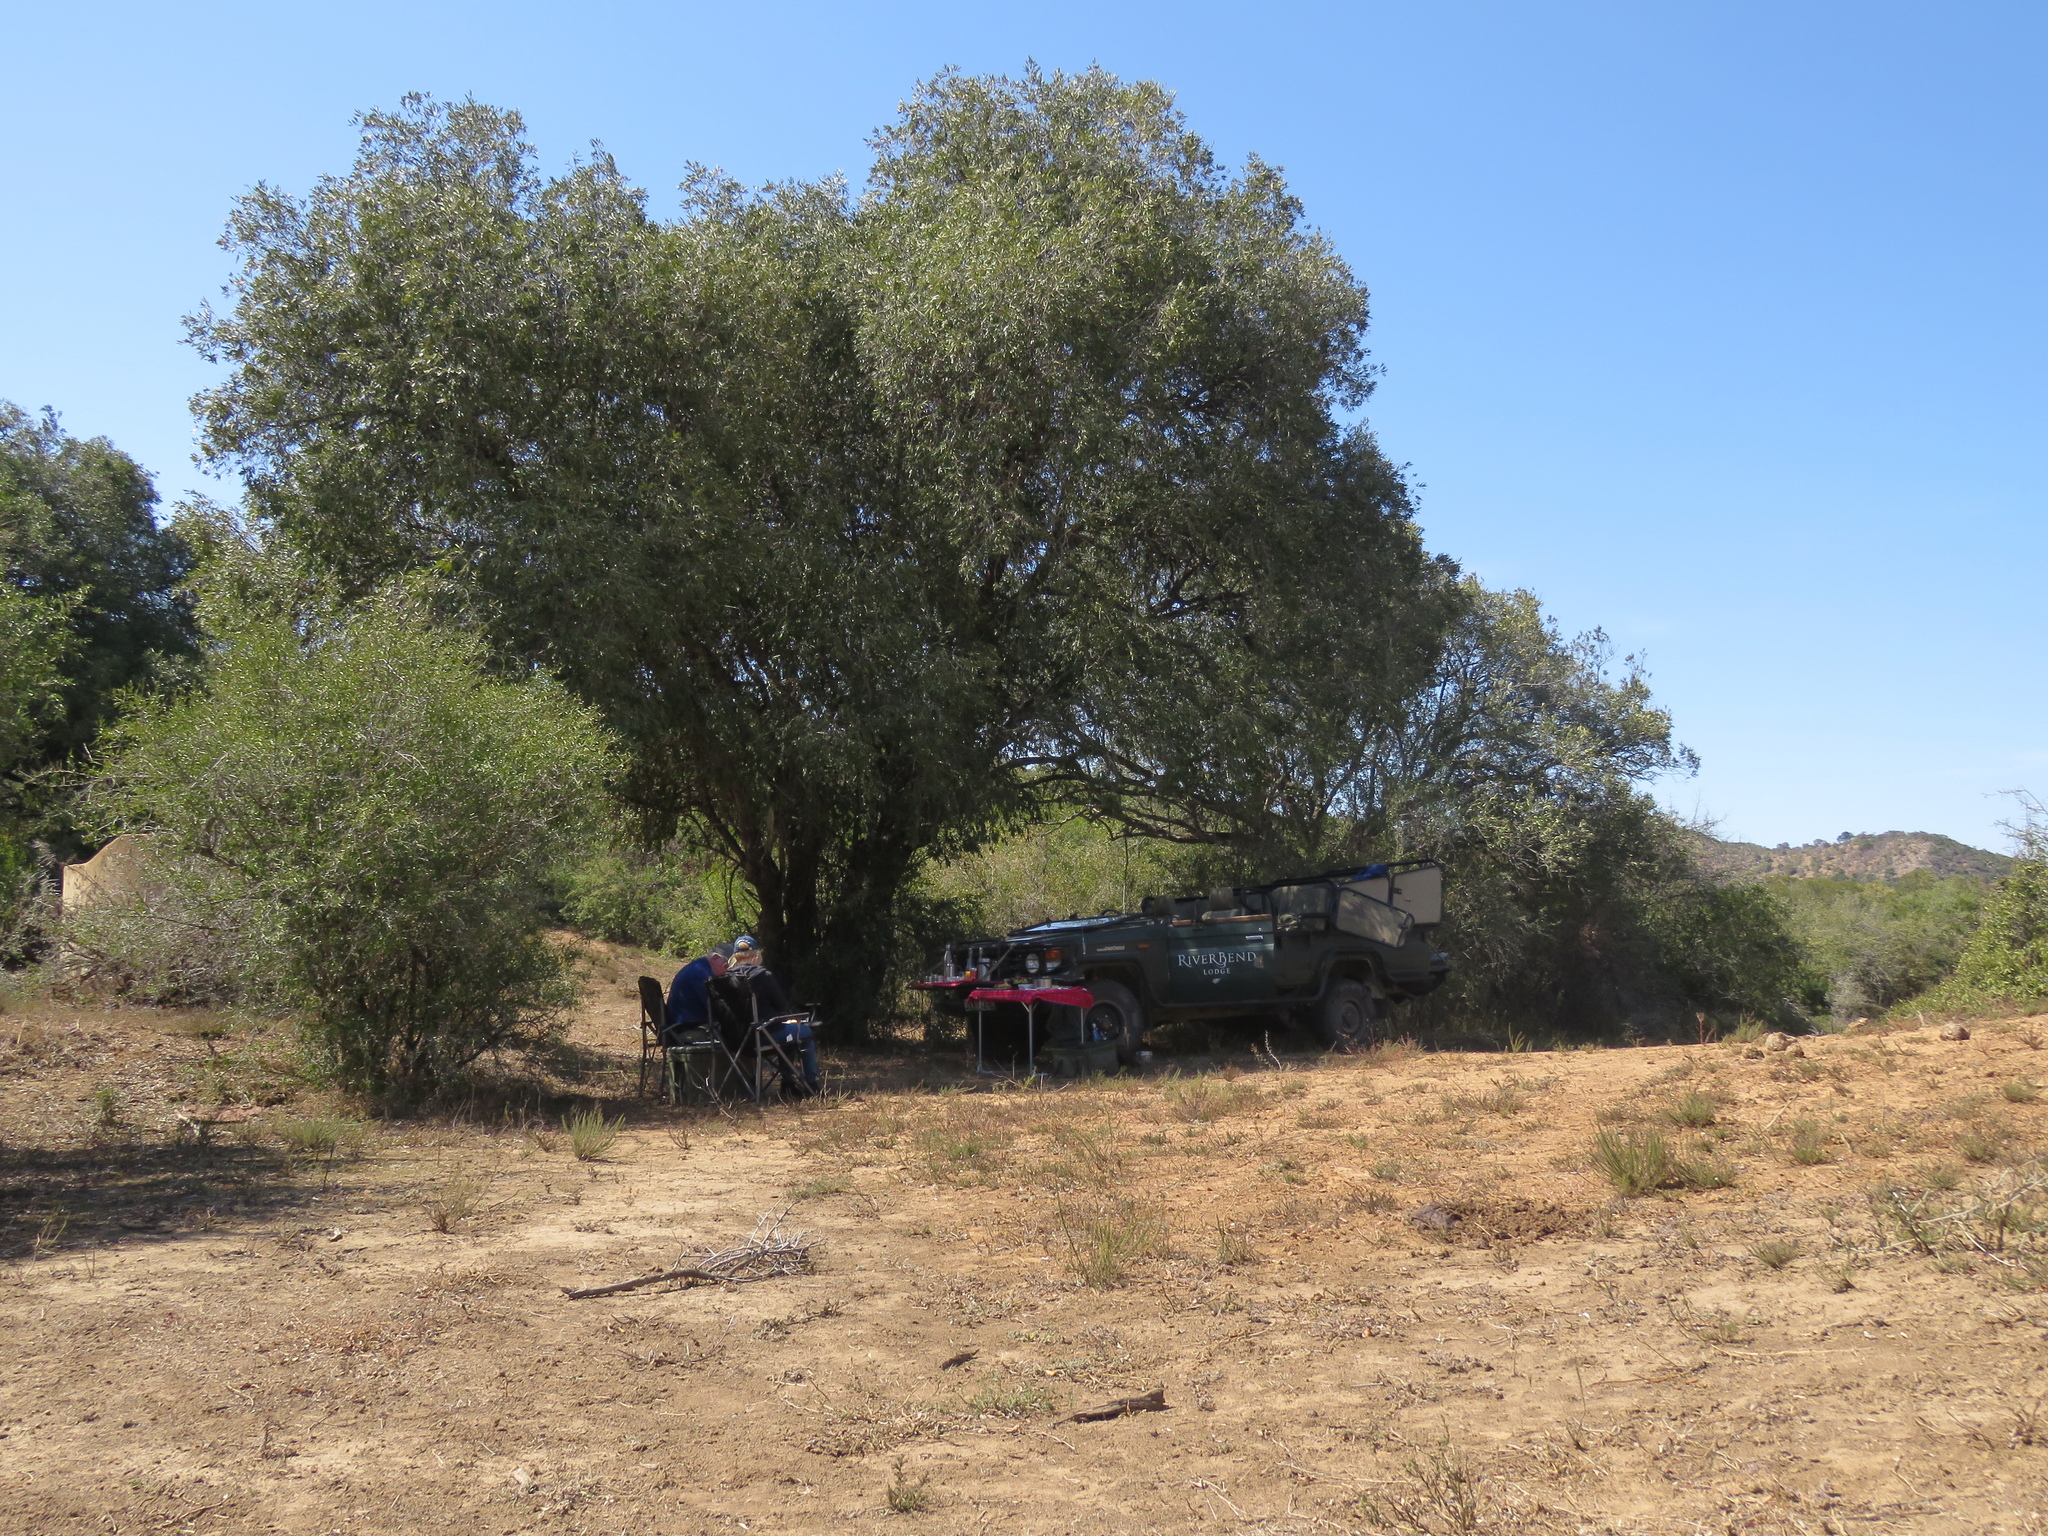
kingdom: Plantae
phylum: Tracheophyta
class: Magnoliopsida
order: Lamiales
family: Oleaceae
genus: Olea
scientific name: Olea europaea
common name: Olive
